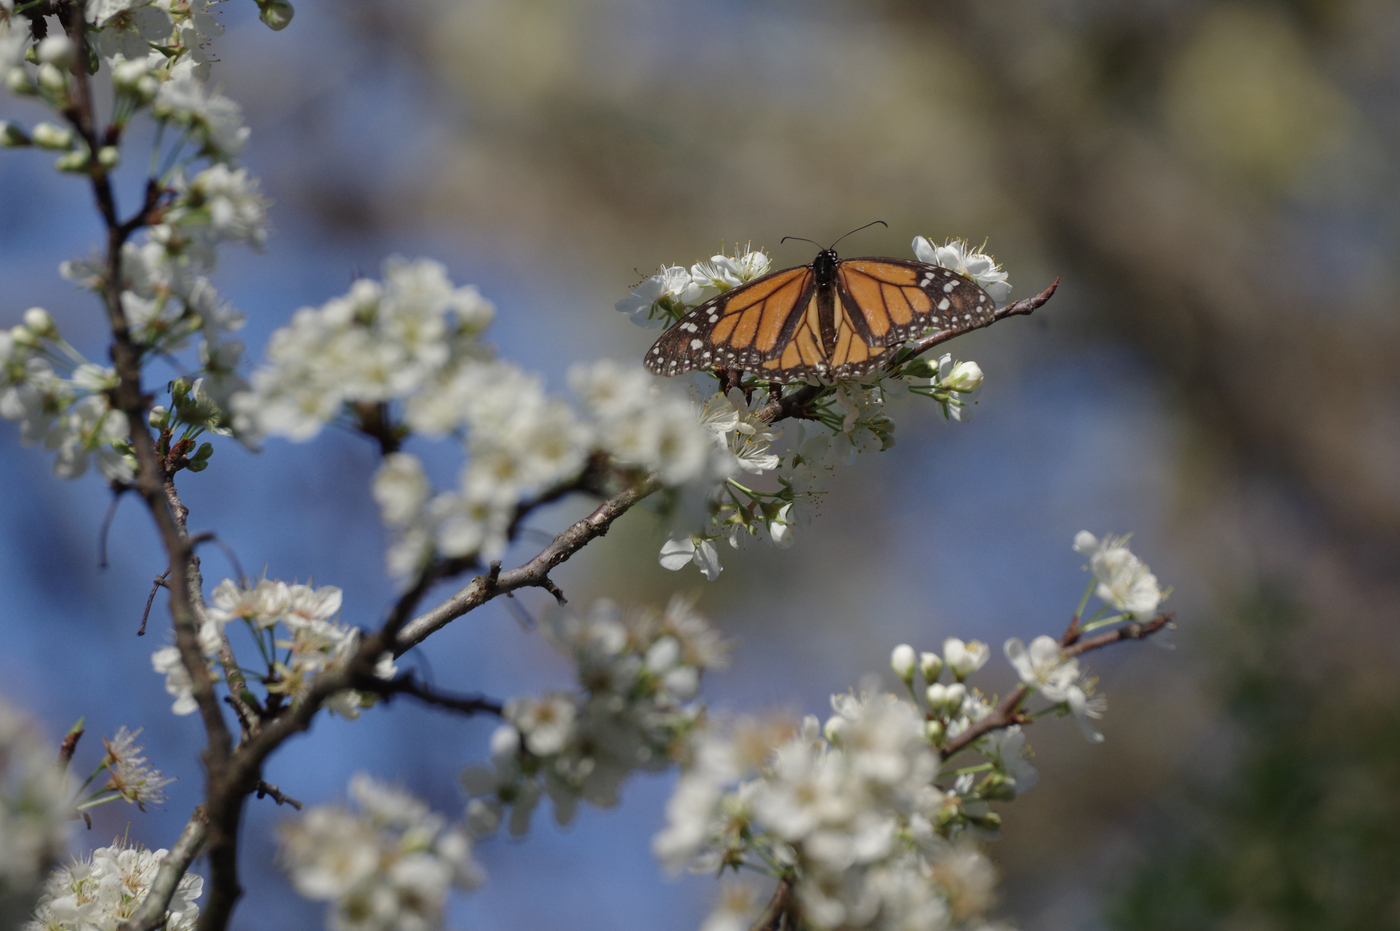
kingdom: Animalia
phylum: Arthropoda
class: Insecta
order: Lepidoptera
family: Nymphalidae
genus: Danaus
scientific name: Danaus plexippus
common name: Monarch
